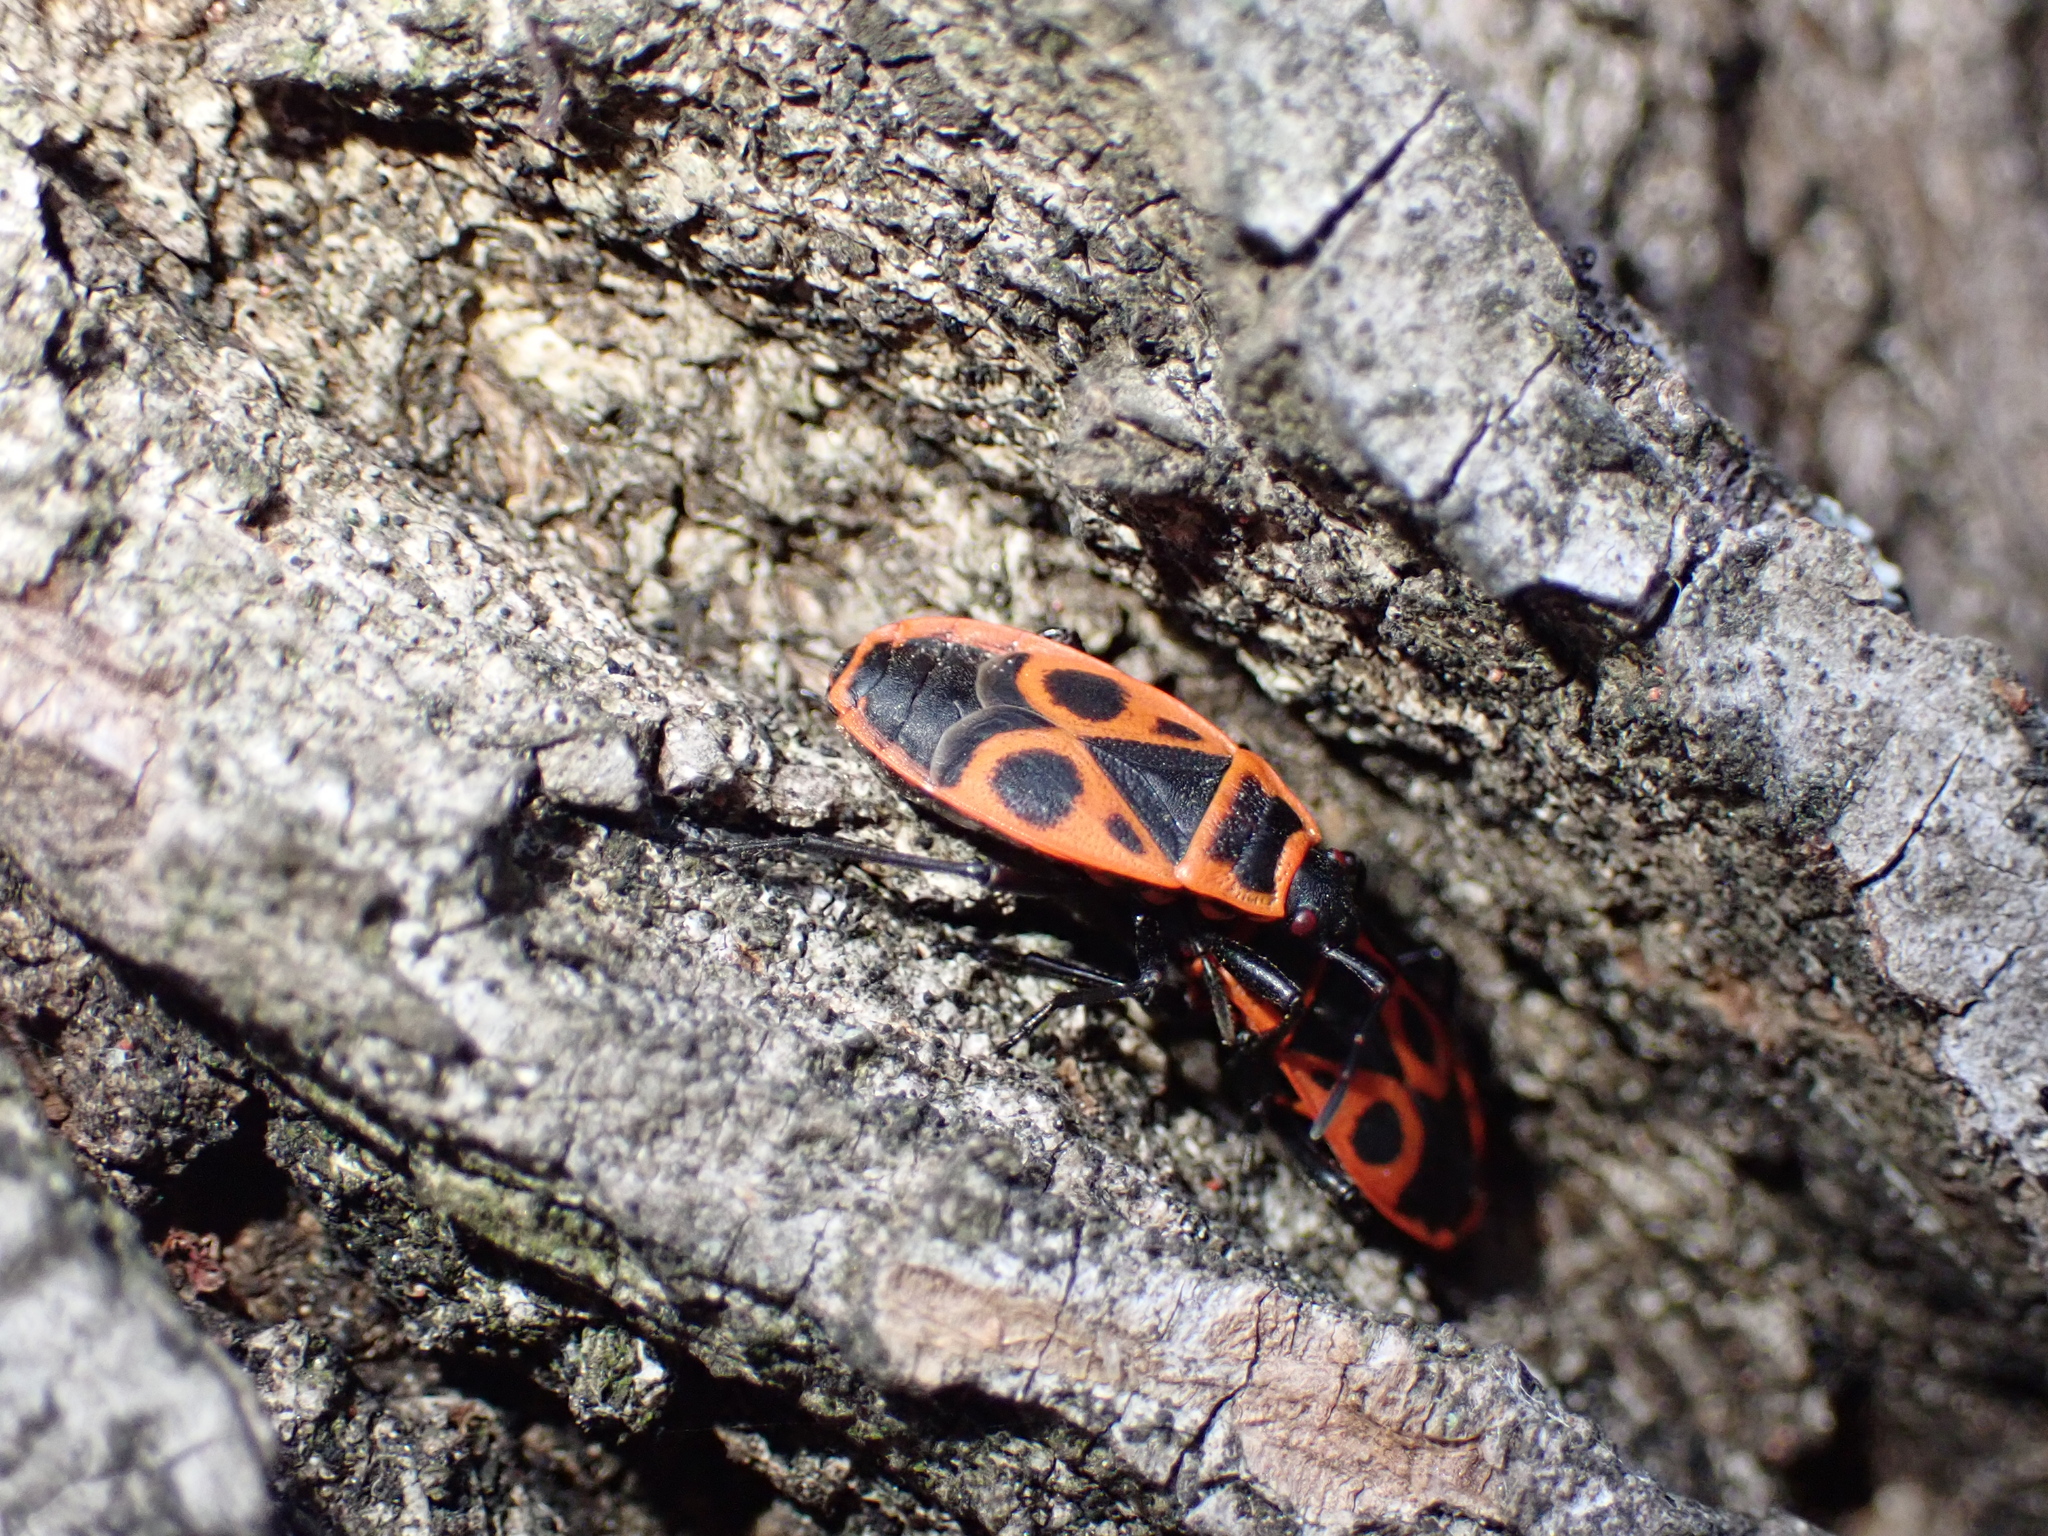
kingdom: Animalia
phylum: Arthropoda
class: Insecta
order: Hemiptera
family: Pyrrhocoridae
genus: Pyrrhocoris
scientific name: Pyrrhocoris apterus
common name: Firebug
